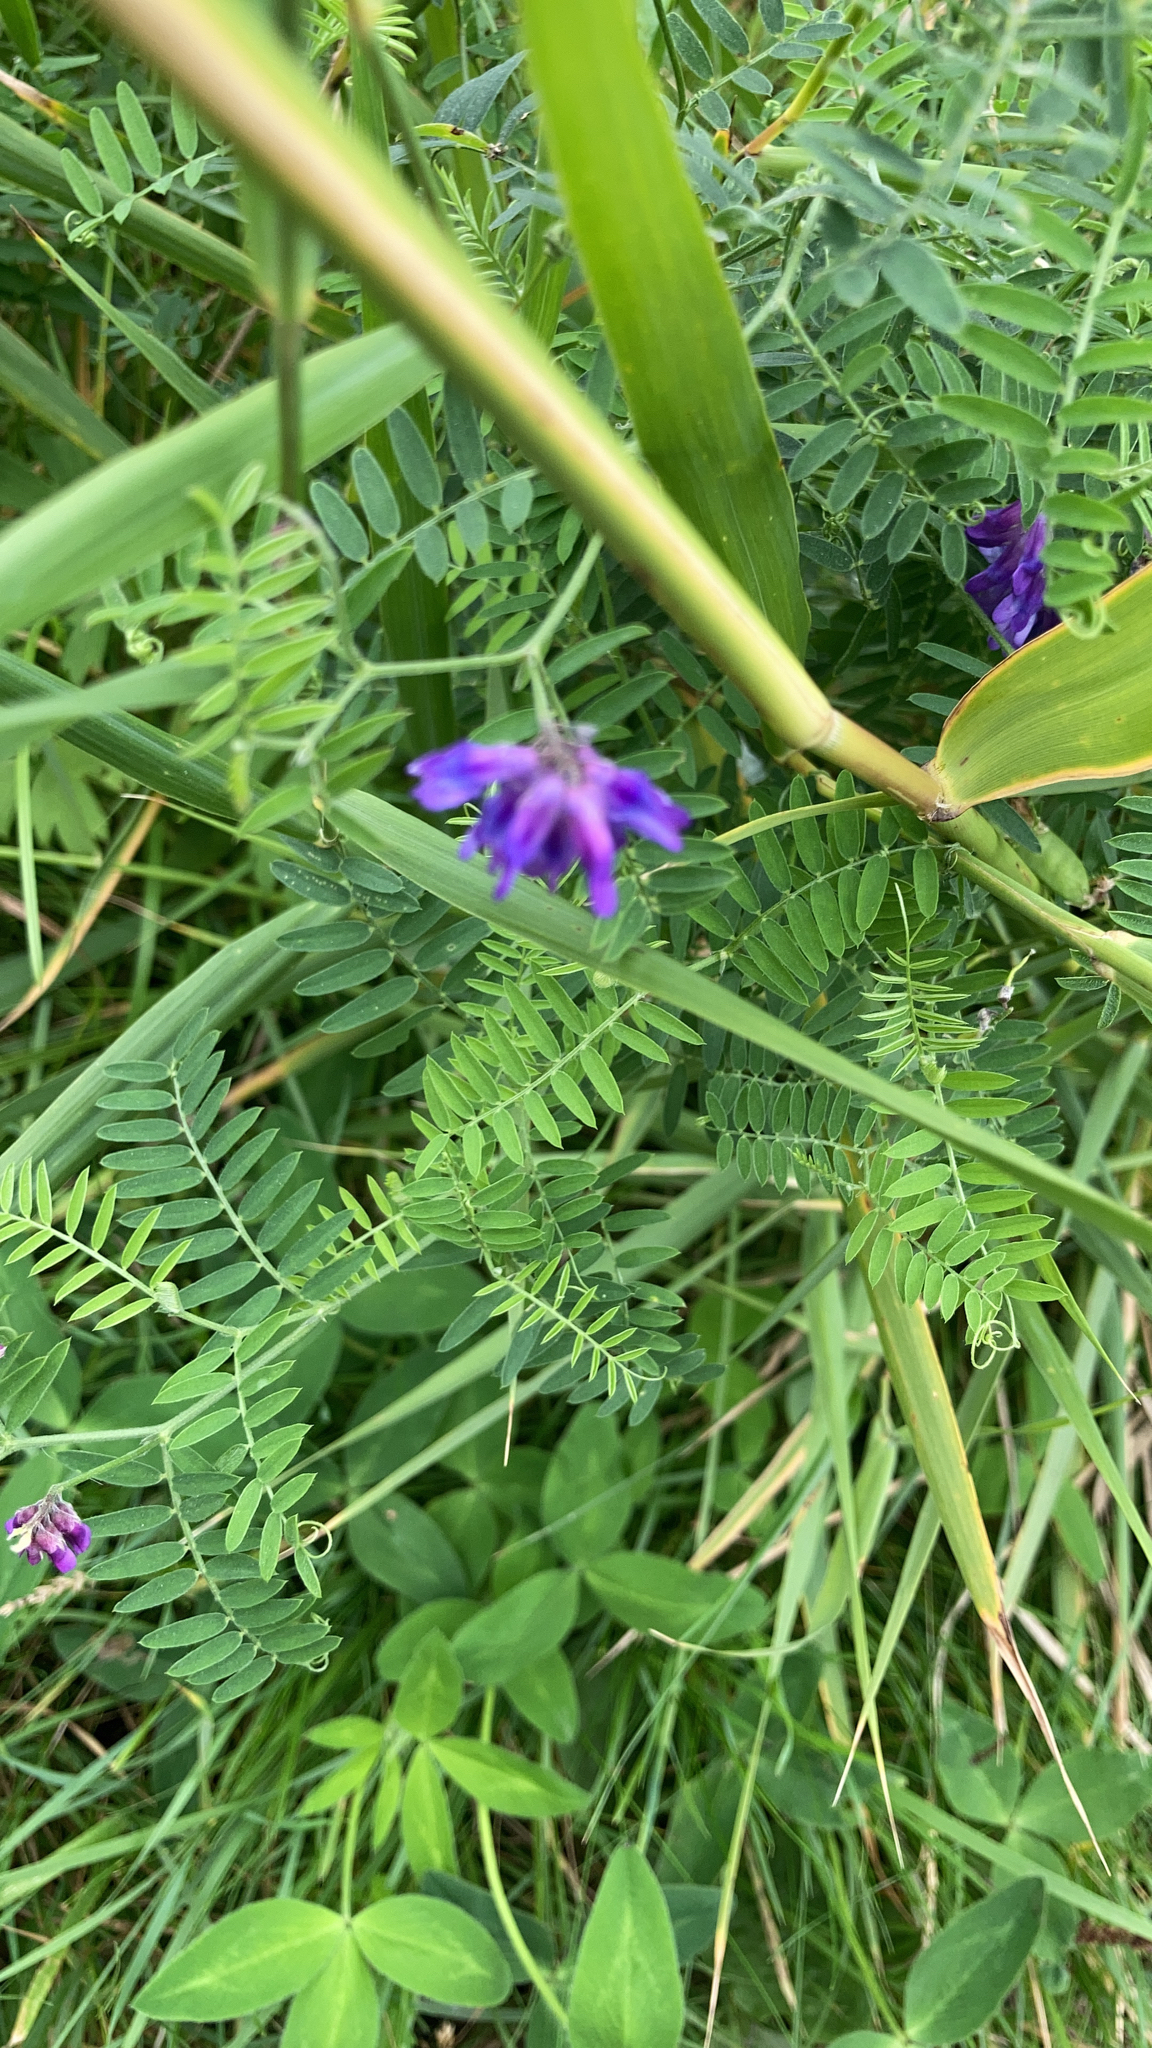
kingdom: Plantae
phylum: Tracheophyta
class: Magnoliopsida
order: Fabales
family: Fabaceae
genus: Vicia
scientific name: Vicia cracca
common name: Bird vetch
